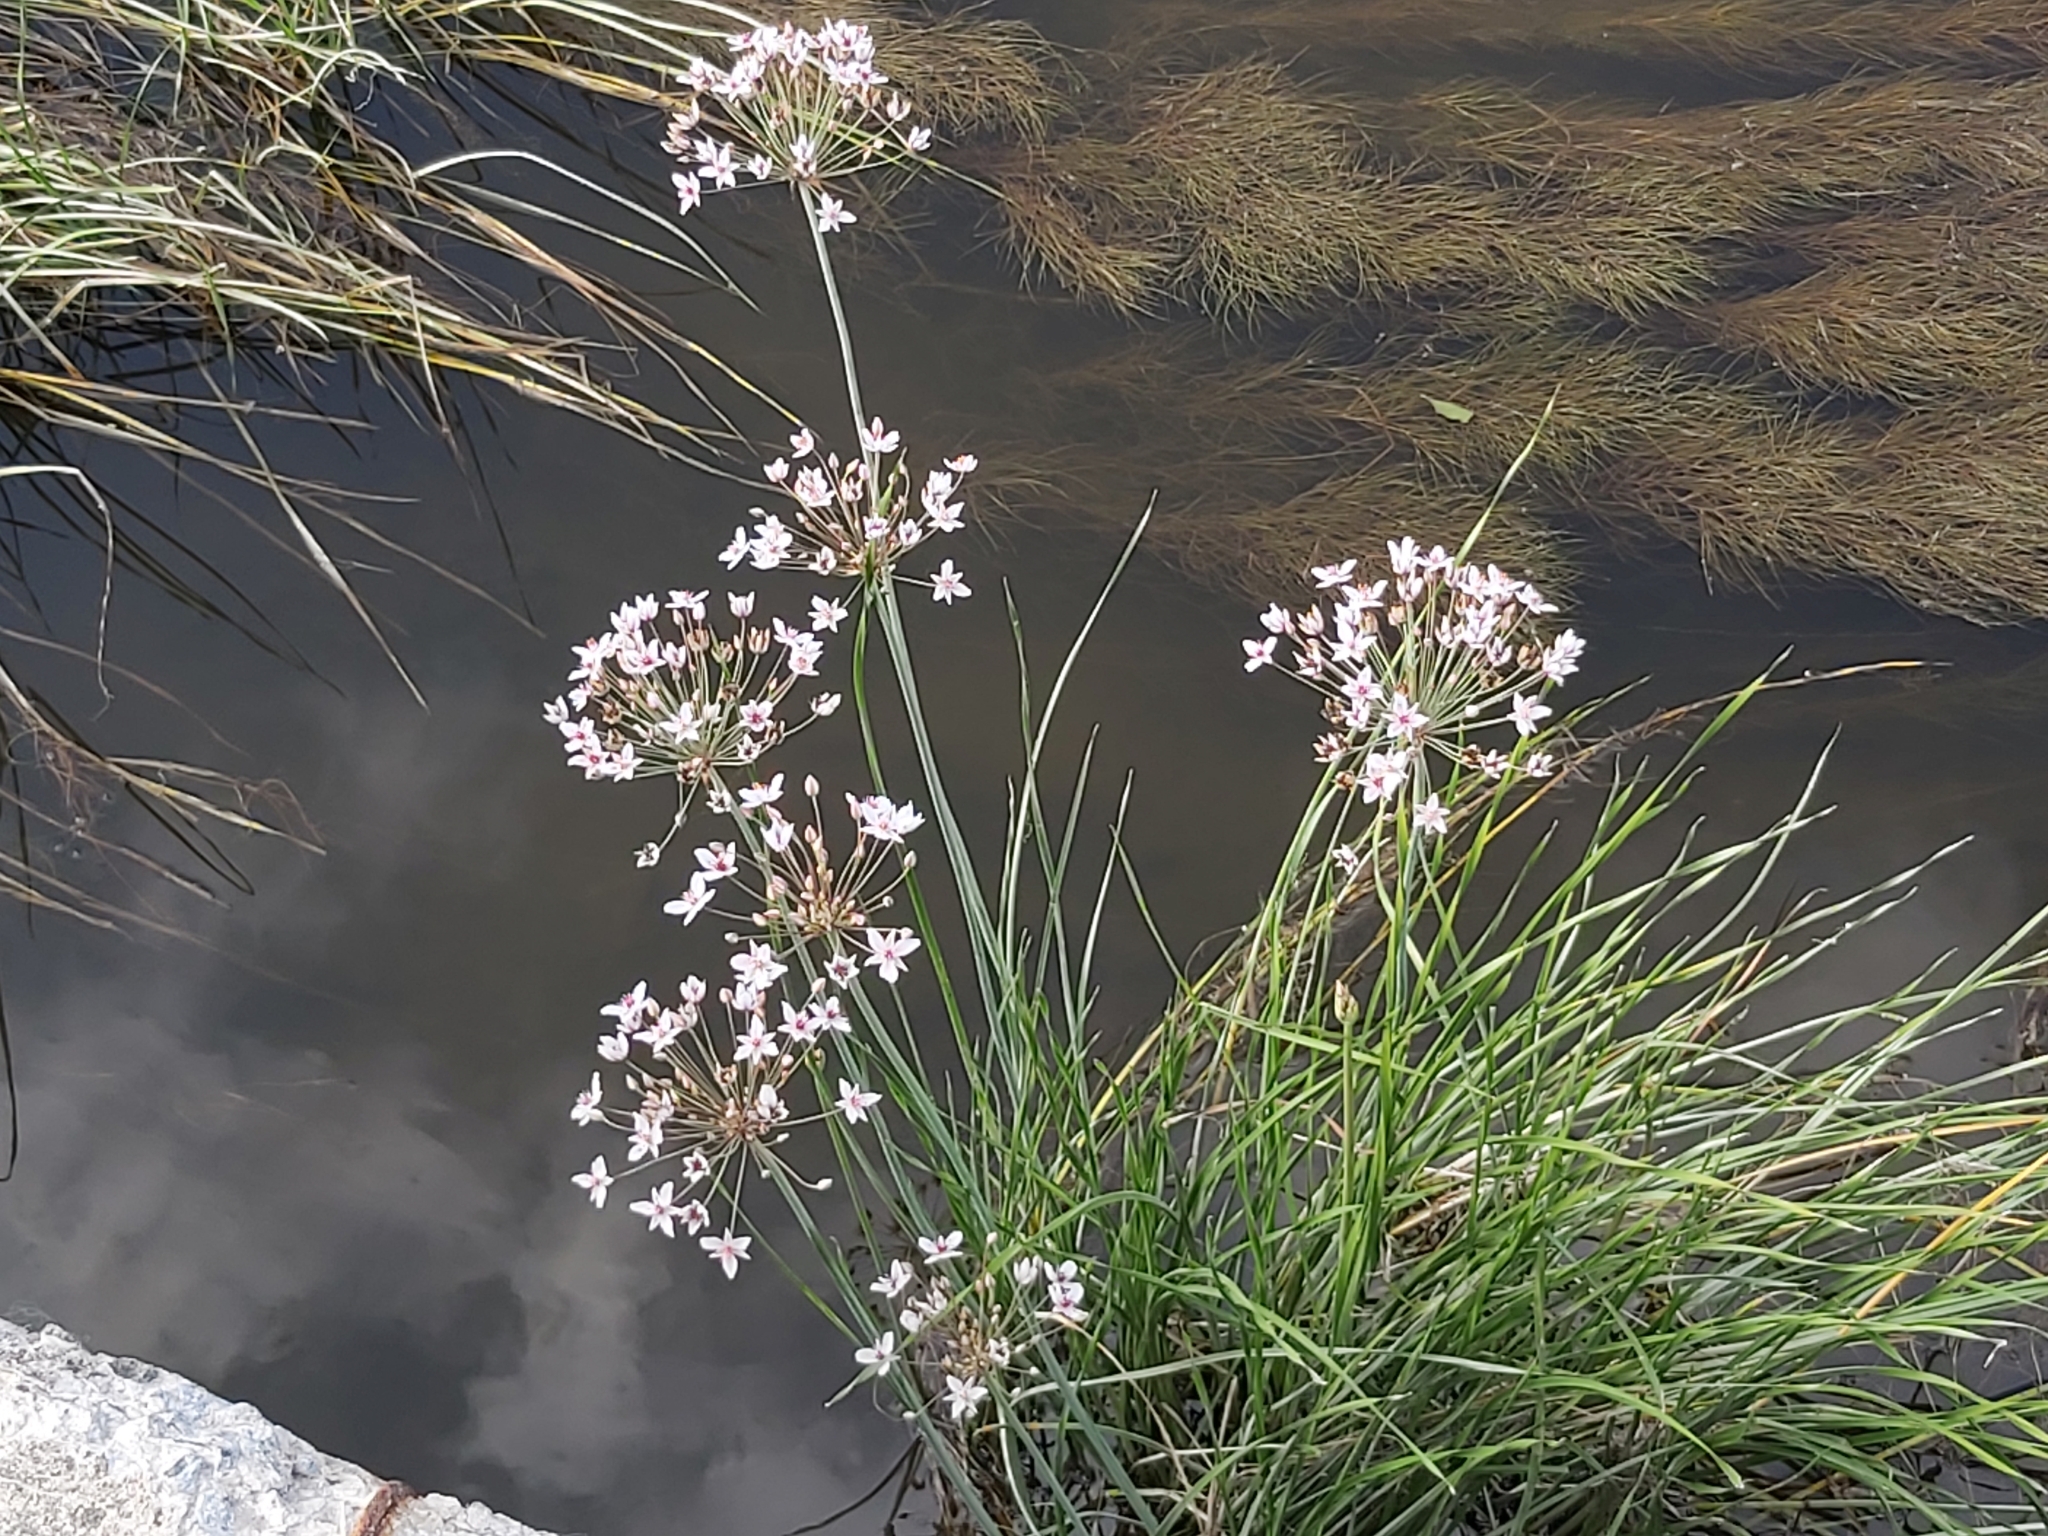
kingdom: Plantae
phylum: Tracheophyta
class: Liliopsida
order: Alismatales
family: Butomaceae
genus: Butomus
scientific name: Butomus umbellatus
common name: Flowering-rush
